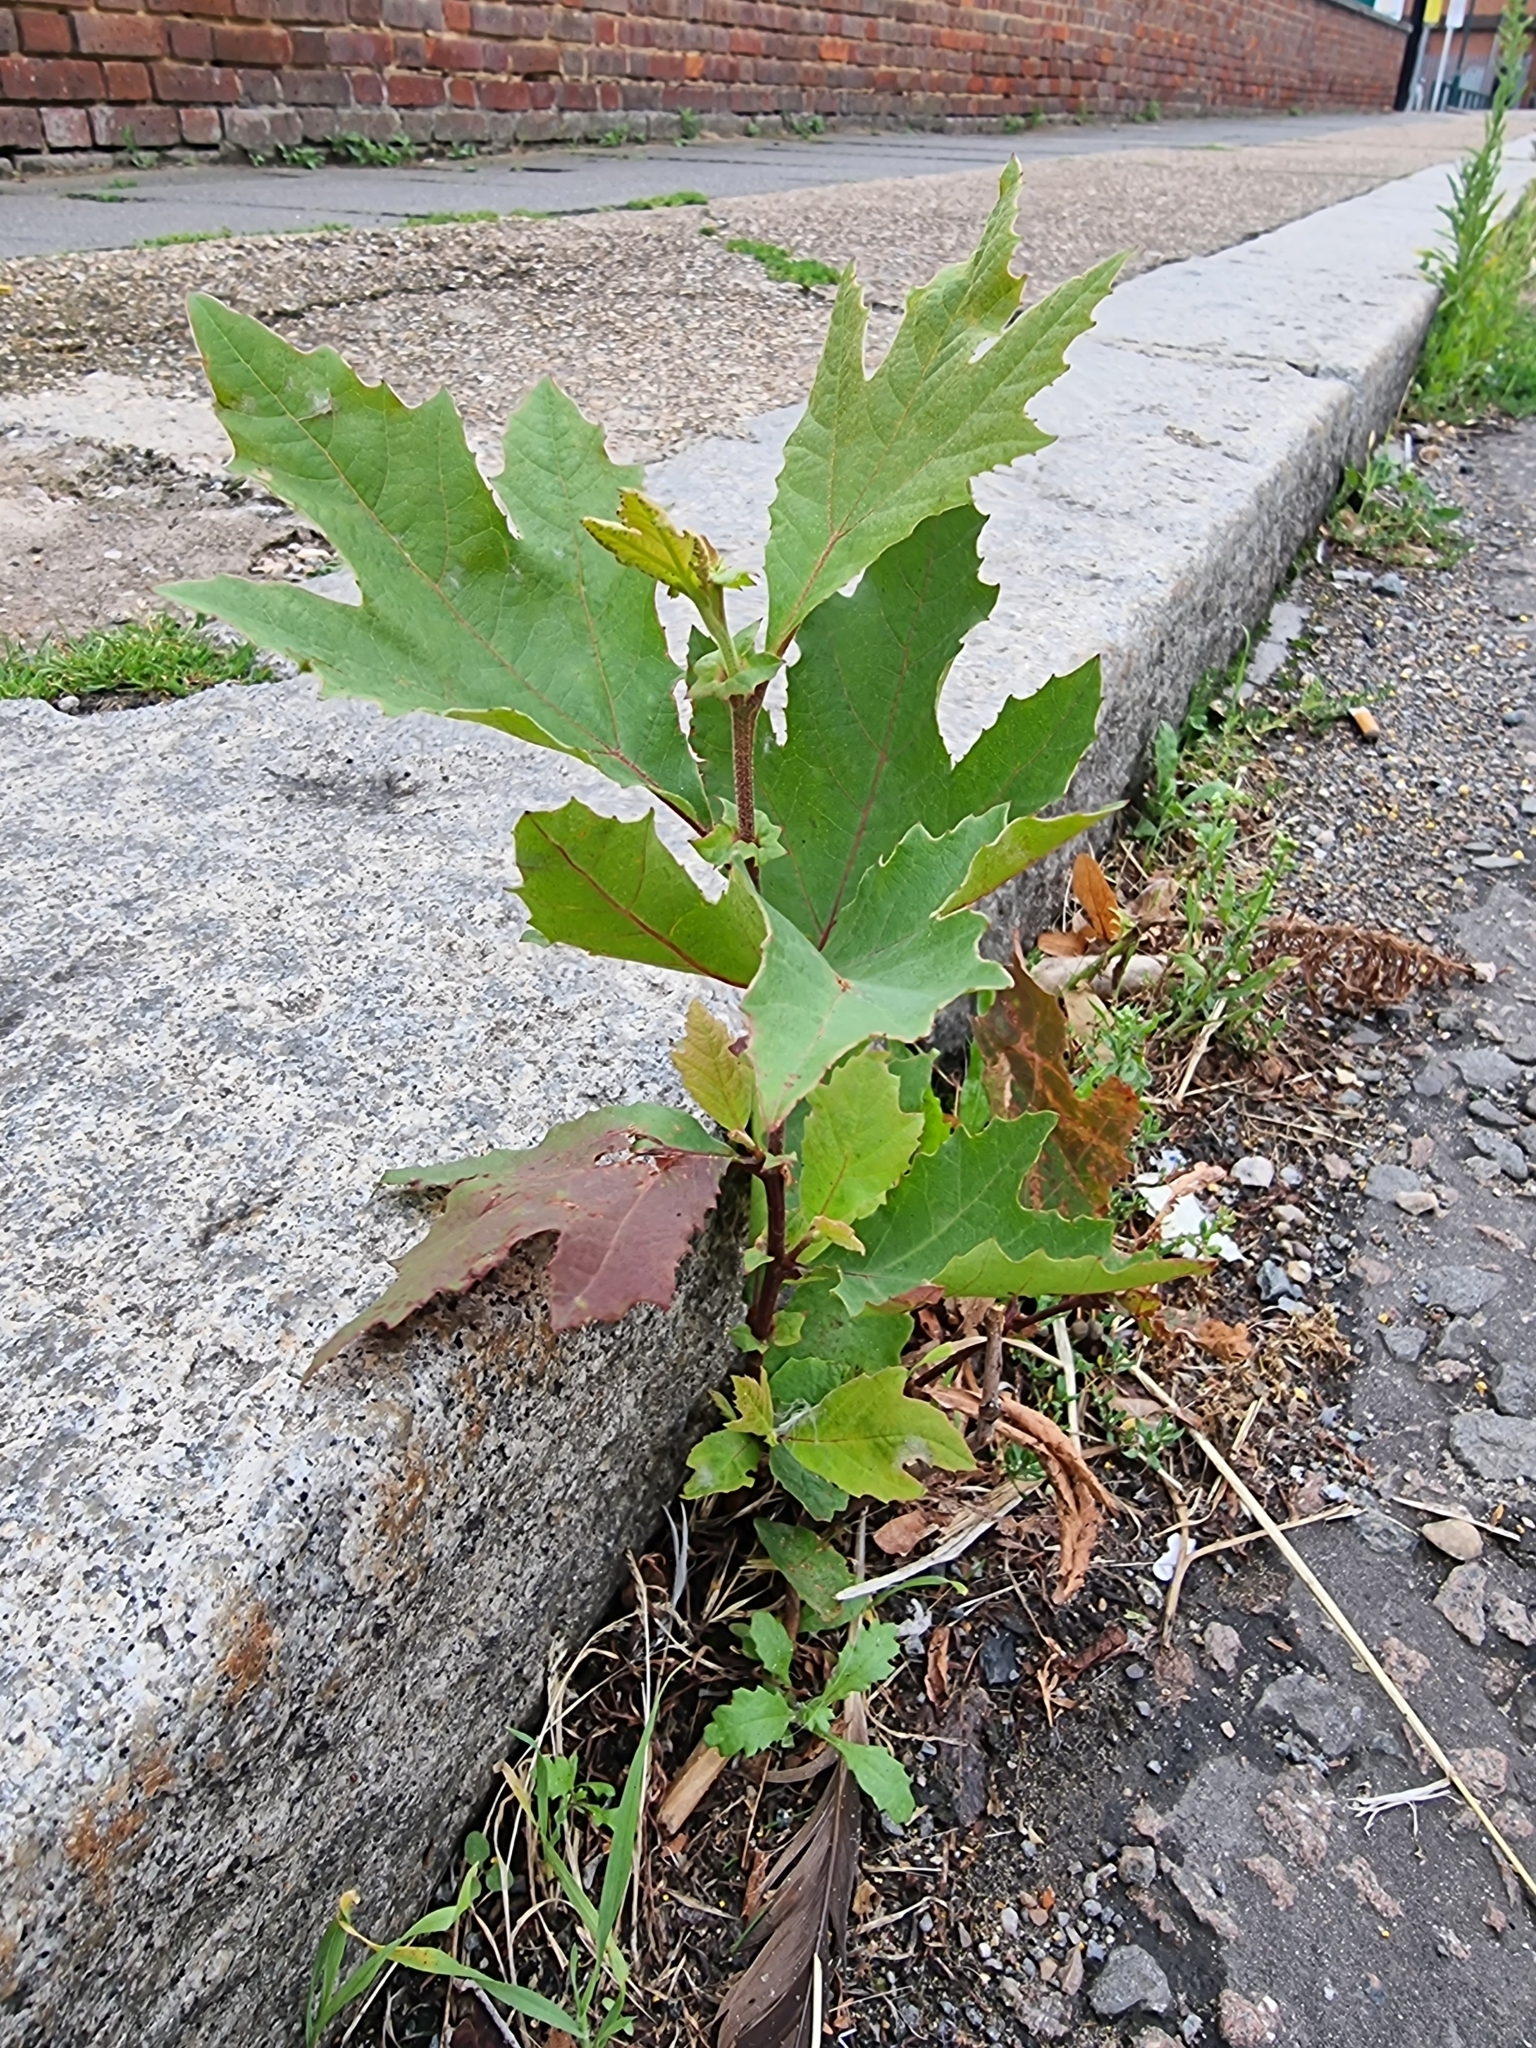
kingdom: Plantae
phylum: Tracheophyta
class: Magnoliopsida
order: Proteales
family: Platanaceae
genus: Platanus
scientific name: Platanus hispanica
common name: London plane
